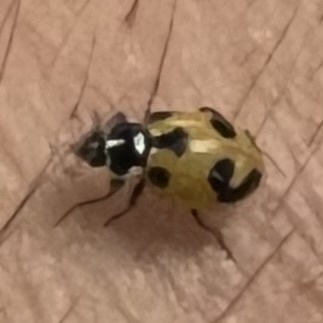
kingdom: Animalia
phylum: Arthropoda
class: Insecta
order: Coleoptera
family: Coccinellidae
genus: Hippodamia
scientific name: Hippodamia parenthesis
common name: Parenthesis lady beetle
